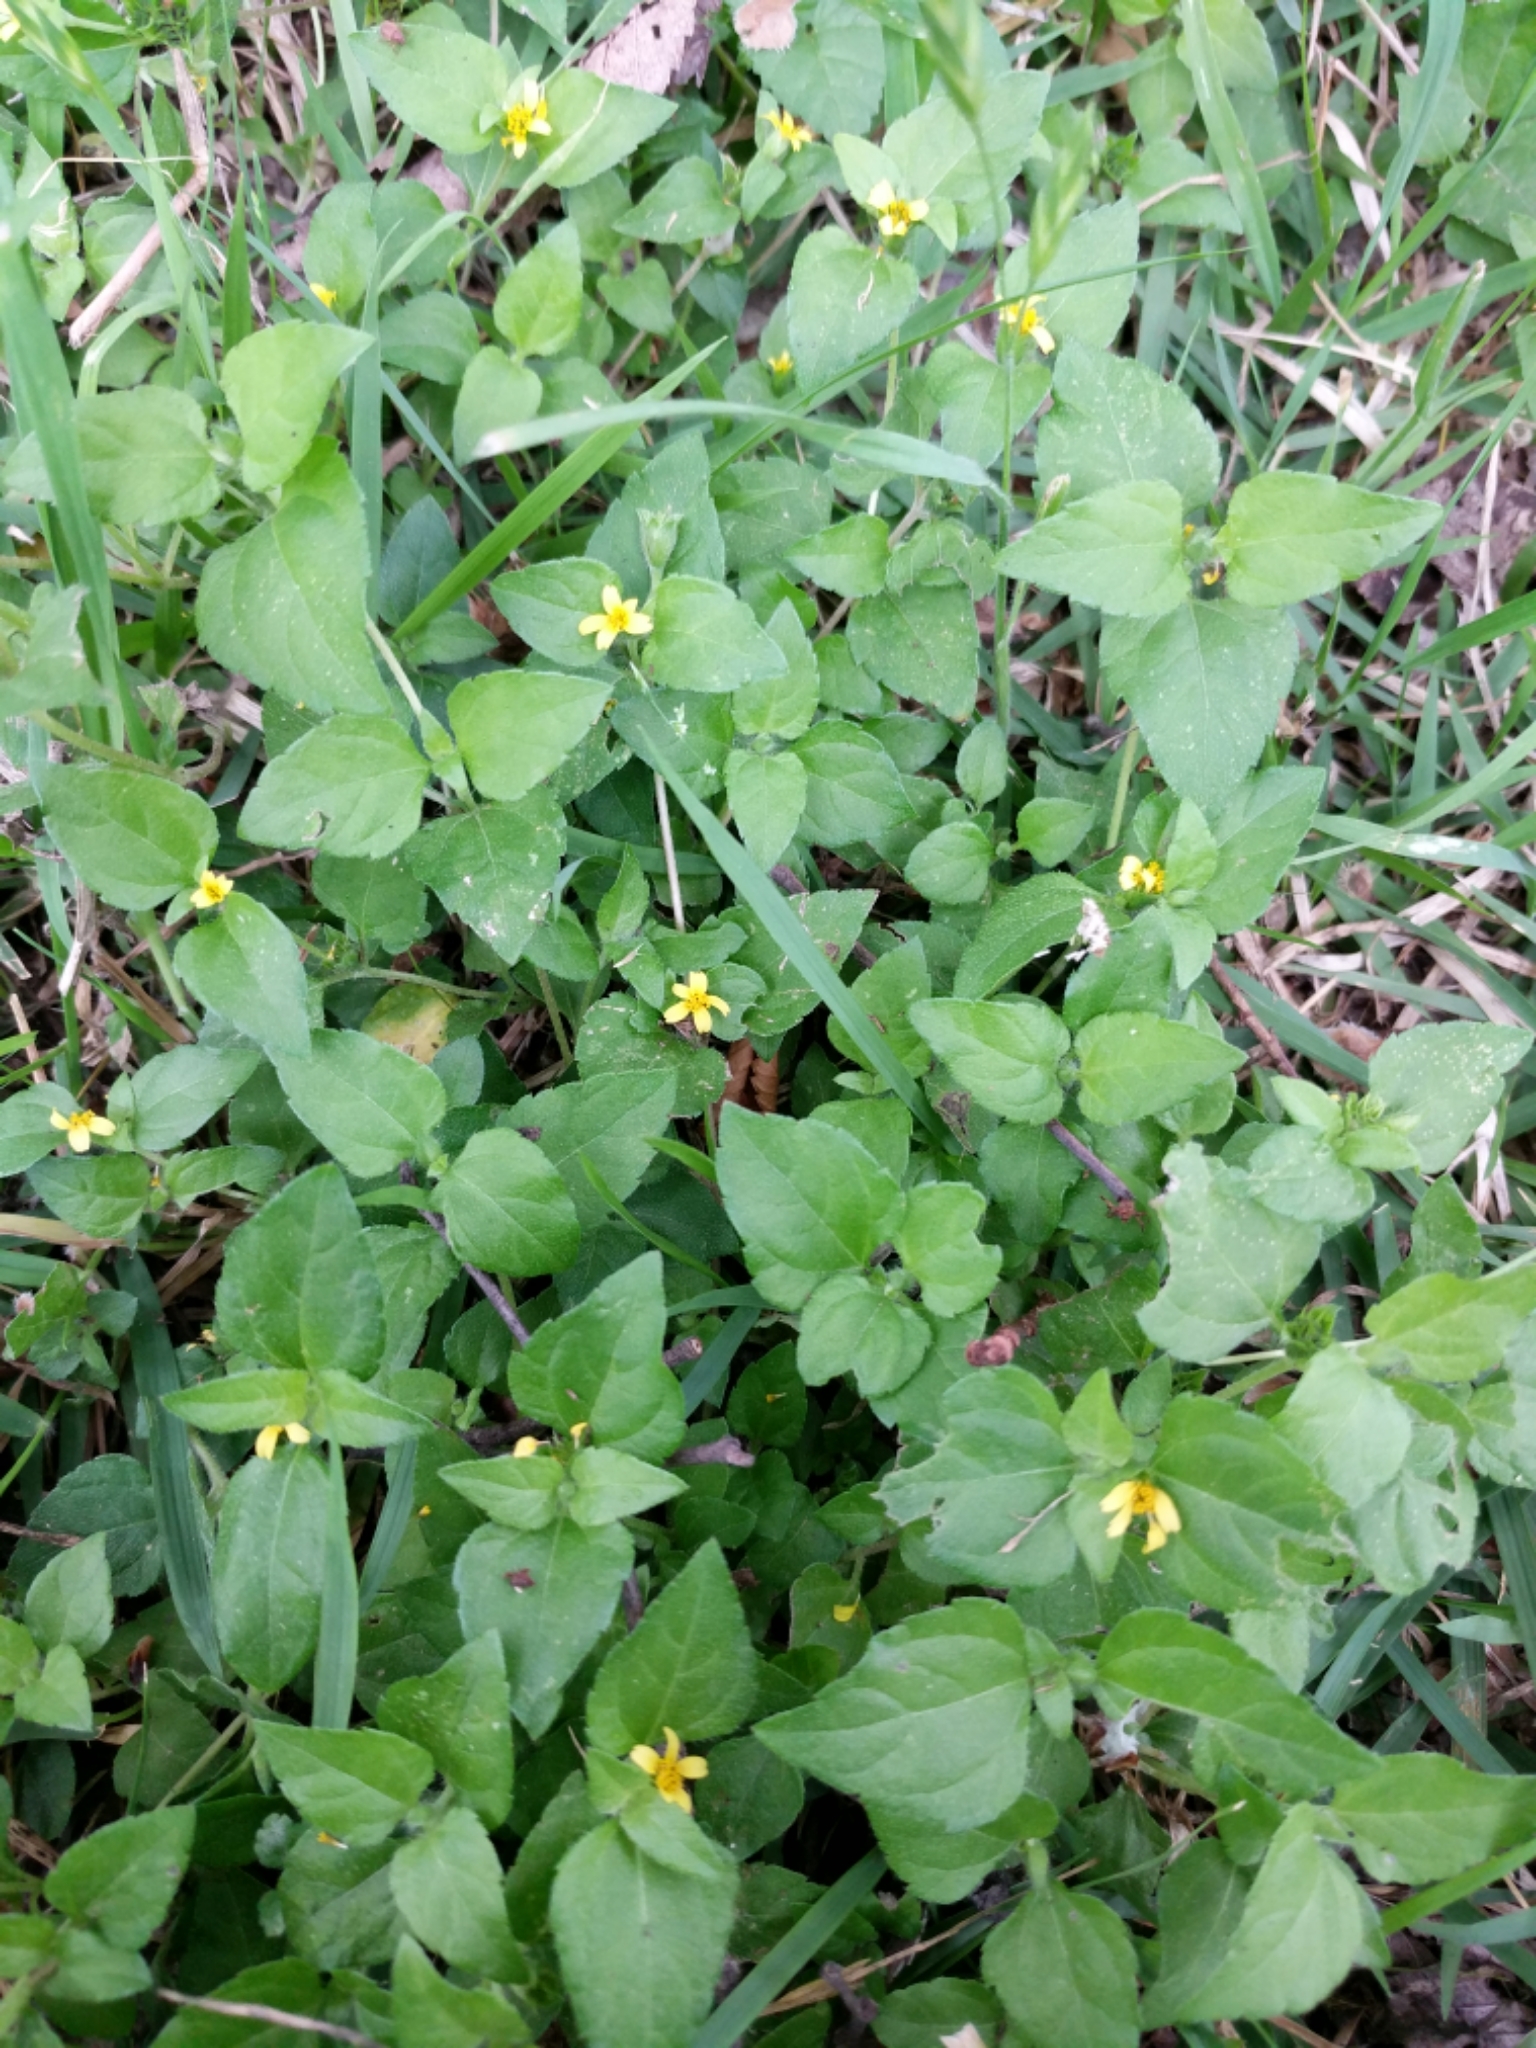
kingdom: Plantae
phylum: Tracheophyta
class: Magnoliopsida
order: Asterales
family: Asteraceae
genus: Calyptocarpus
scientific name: Calyptocarpus vialis
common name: Straggler daisy
